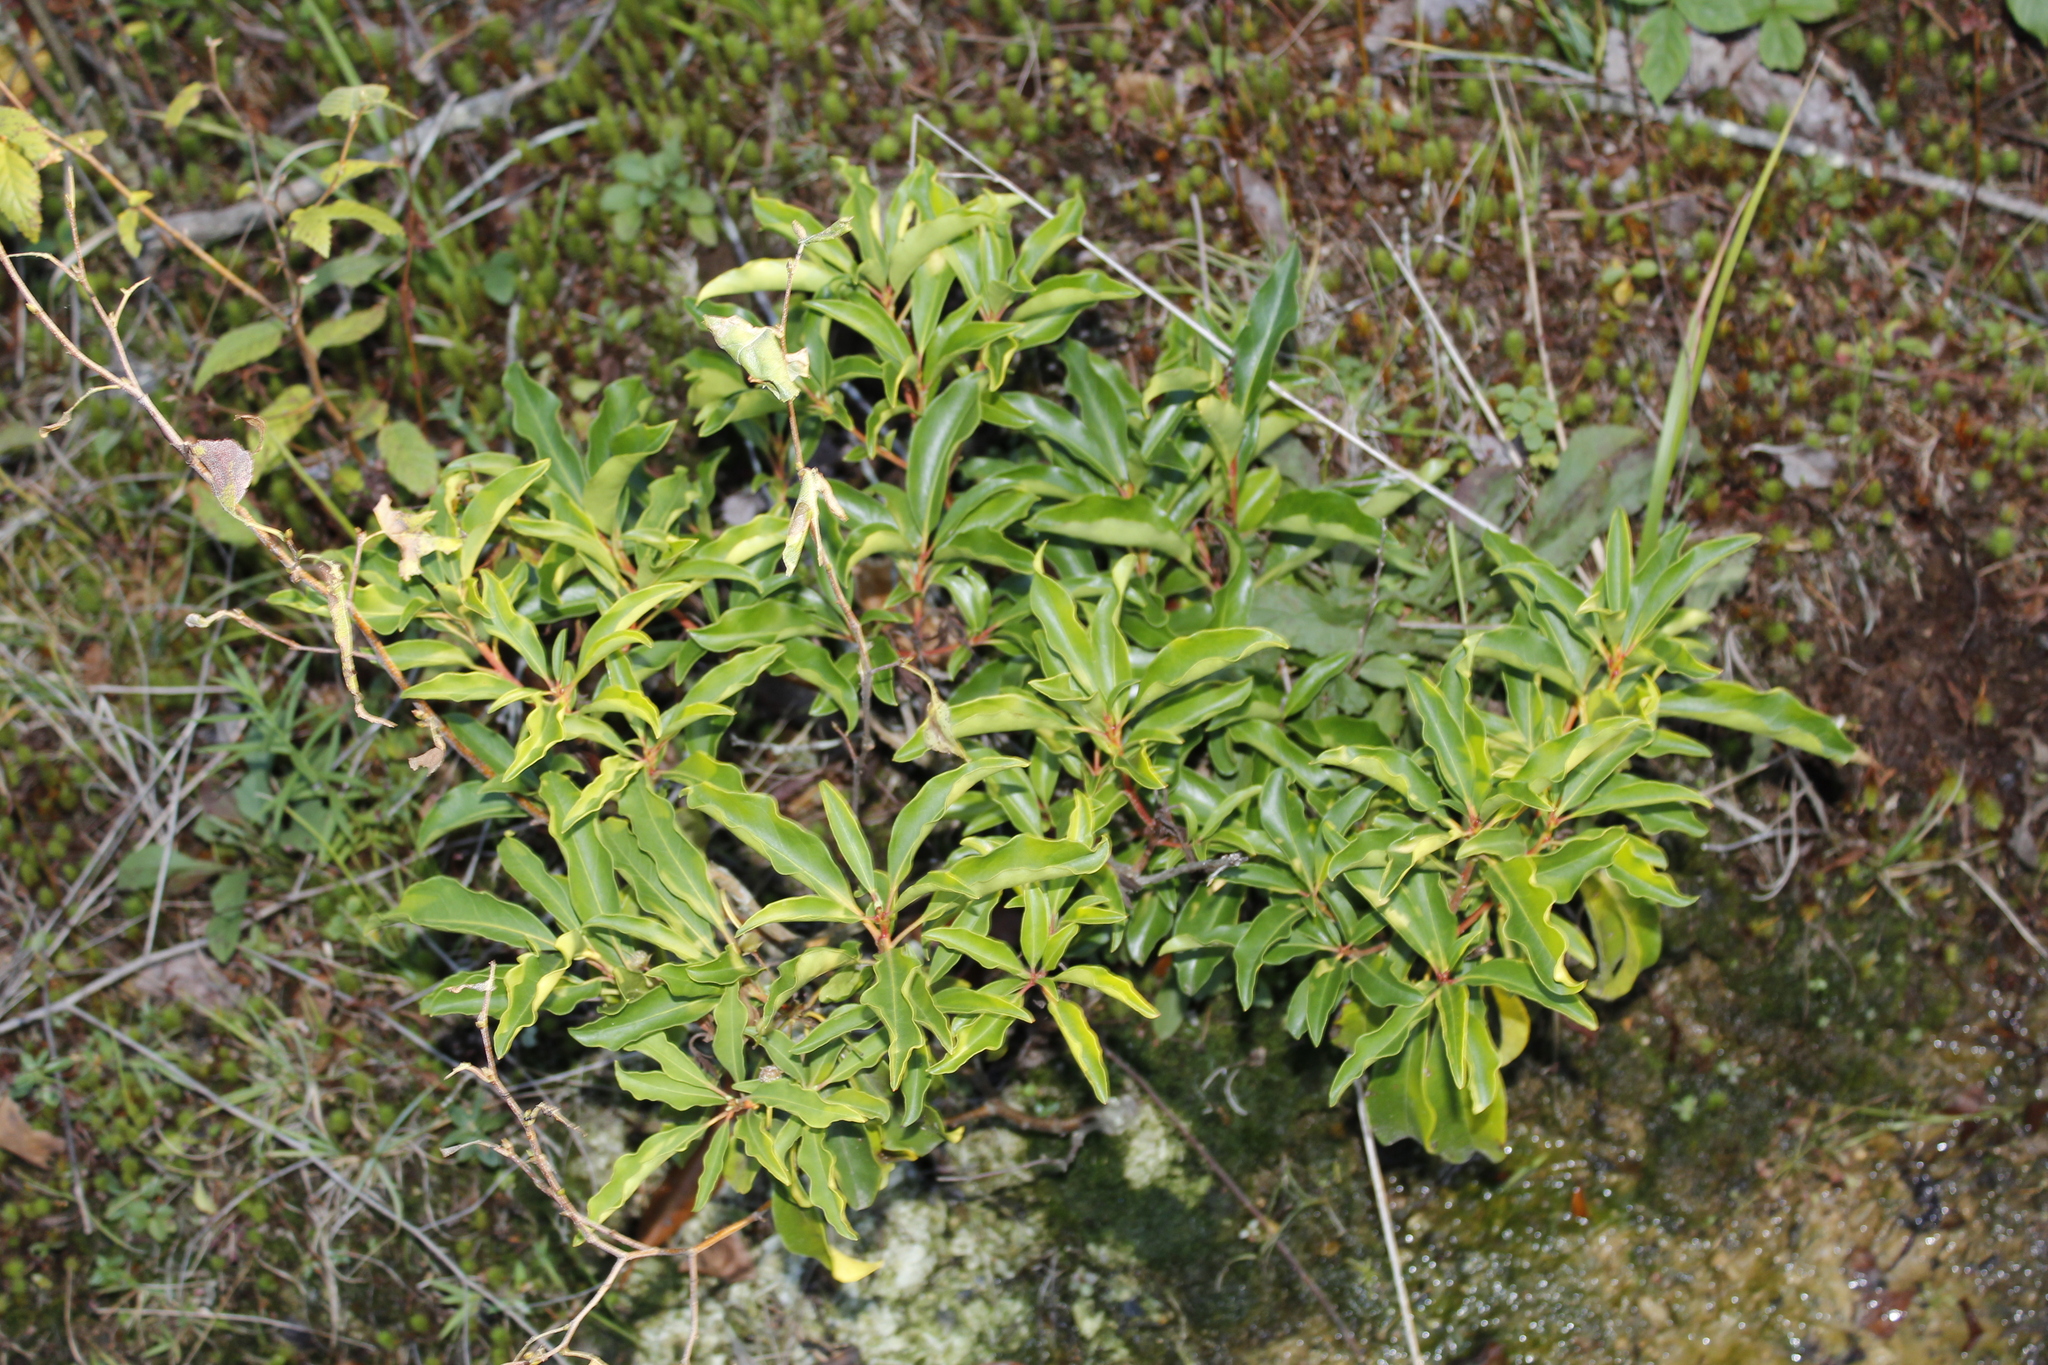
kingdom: Plantae
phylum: Tracheophyta
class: Magnoliopsida
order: Ericales
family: Ericaceae
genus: Kalmia
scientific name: Kalmia latifolia
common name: Mountain-laurel
